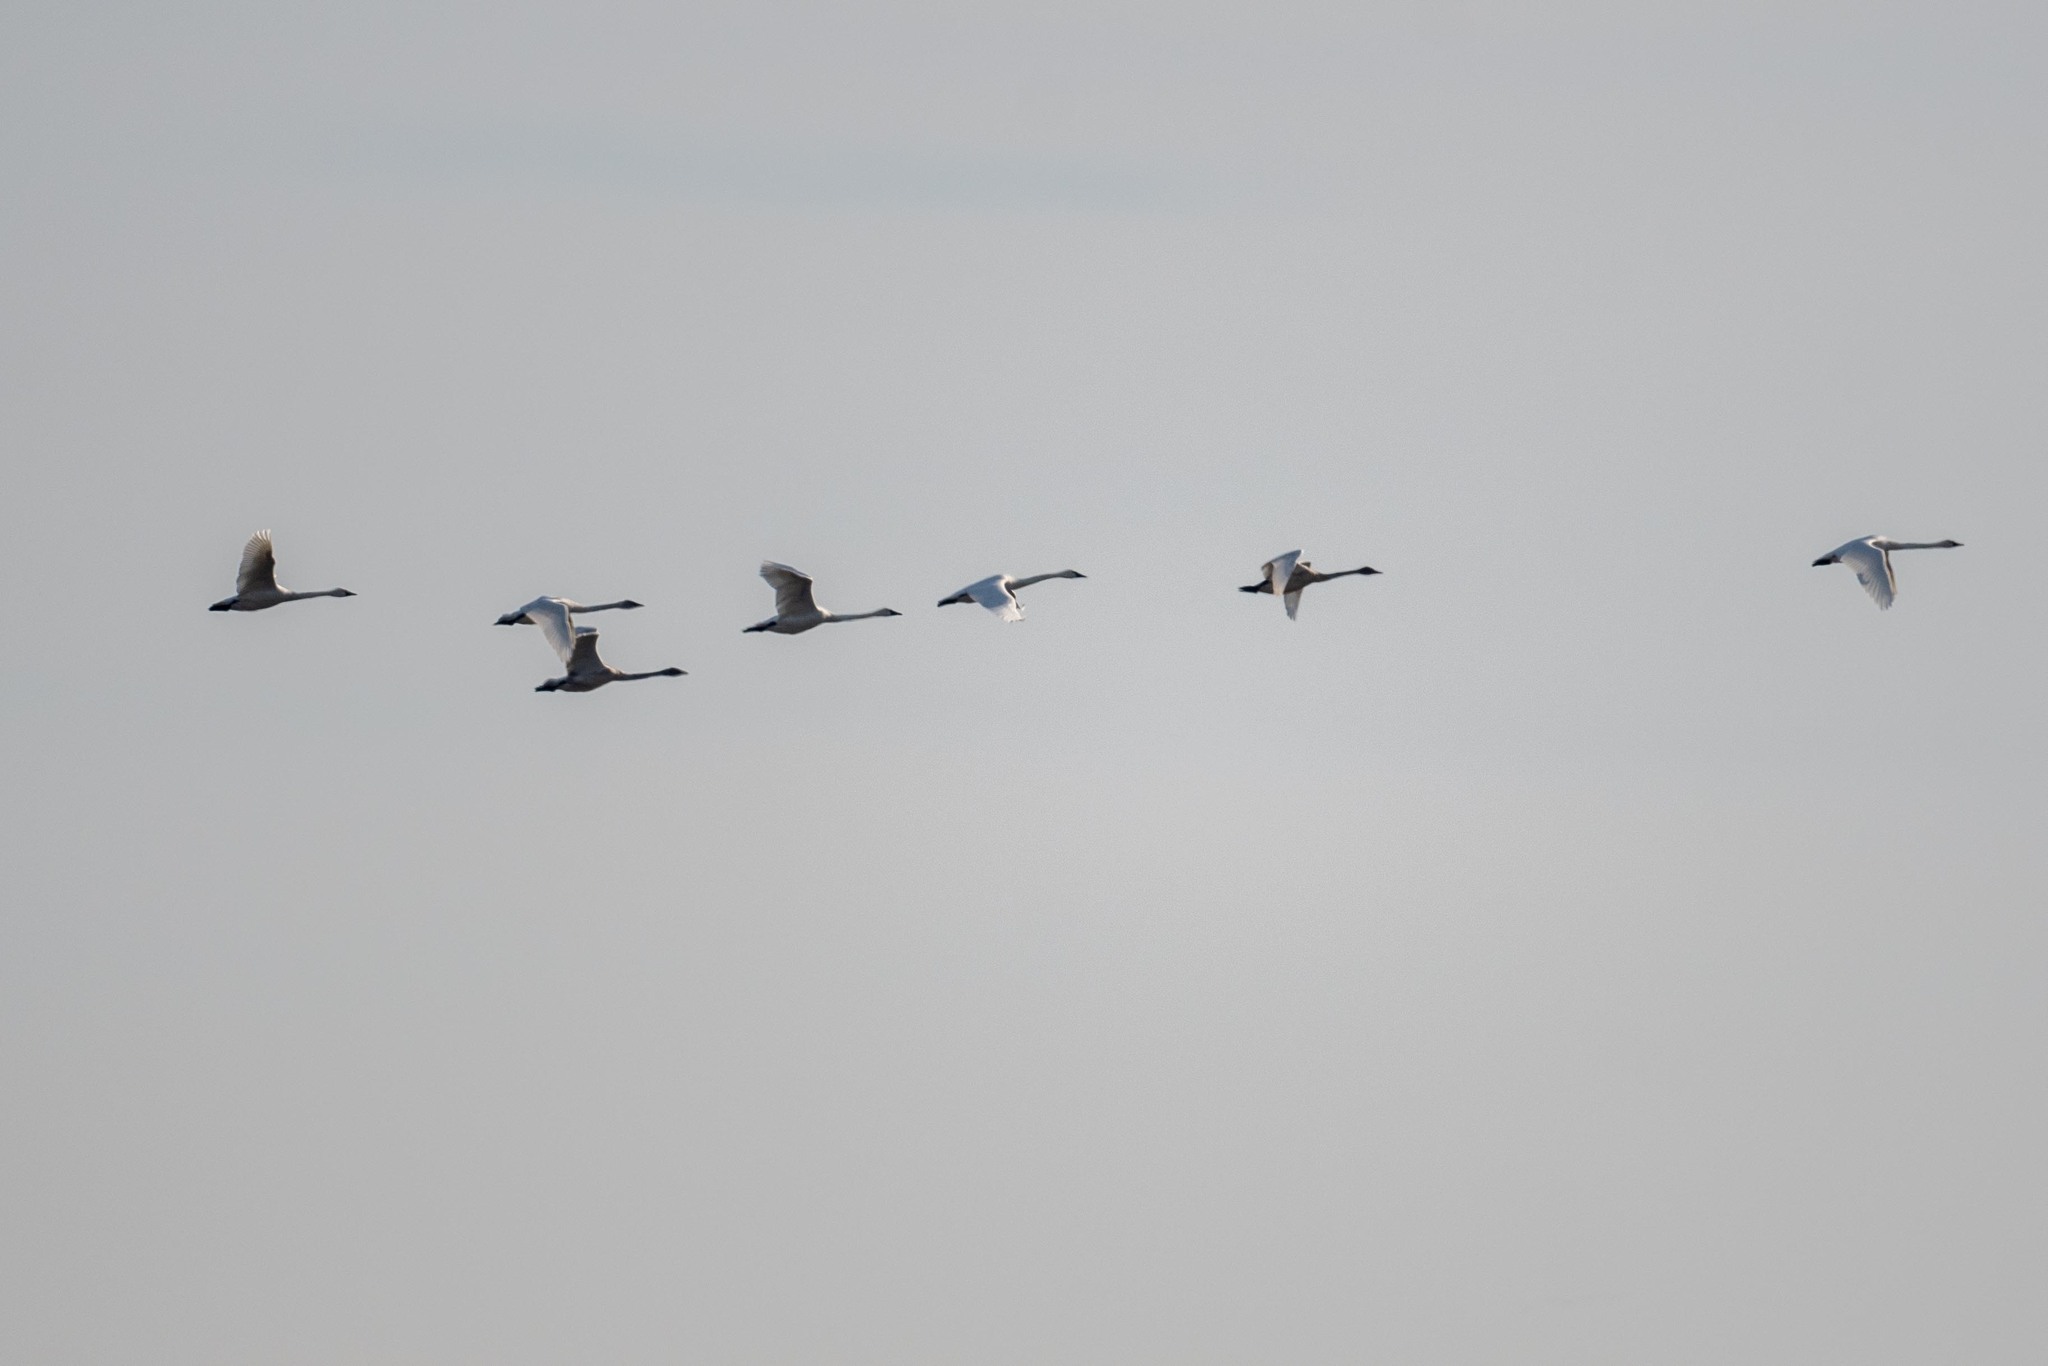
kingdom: Animalia
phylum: Chordata
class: Aves
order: Anseriformes
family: Anatidae
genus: Cygnus
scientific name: Cygnus columbianus
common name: Tundra swan
